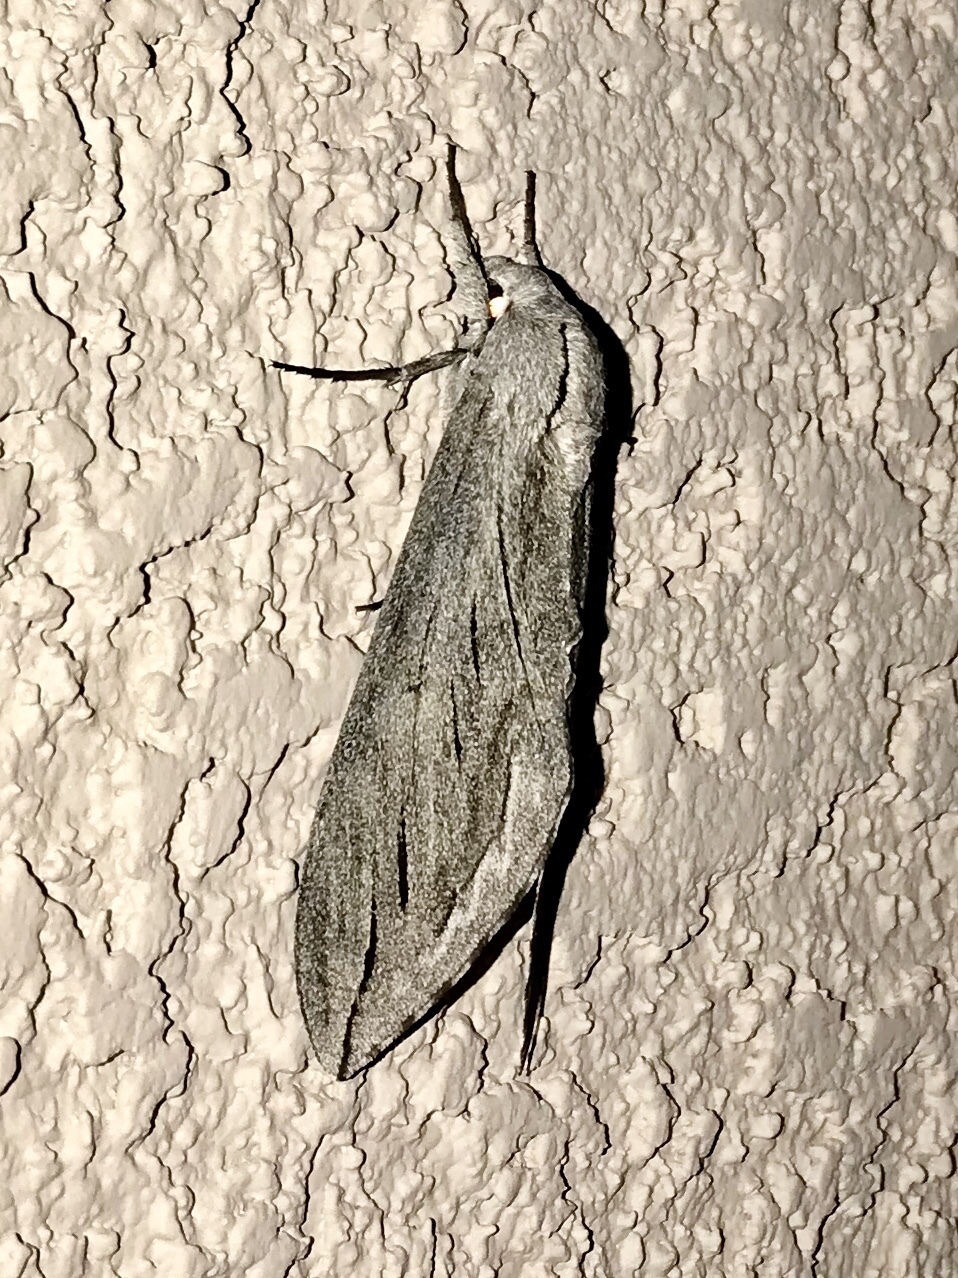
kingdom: Animalia
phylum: Arthropoda
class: Insecta
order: Lepidoptera
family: Sphingidae
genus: Sphinx
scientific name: Sphinx chersis
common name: Great ash sphinx
